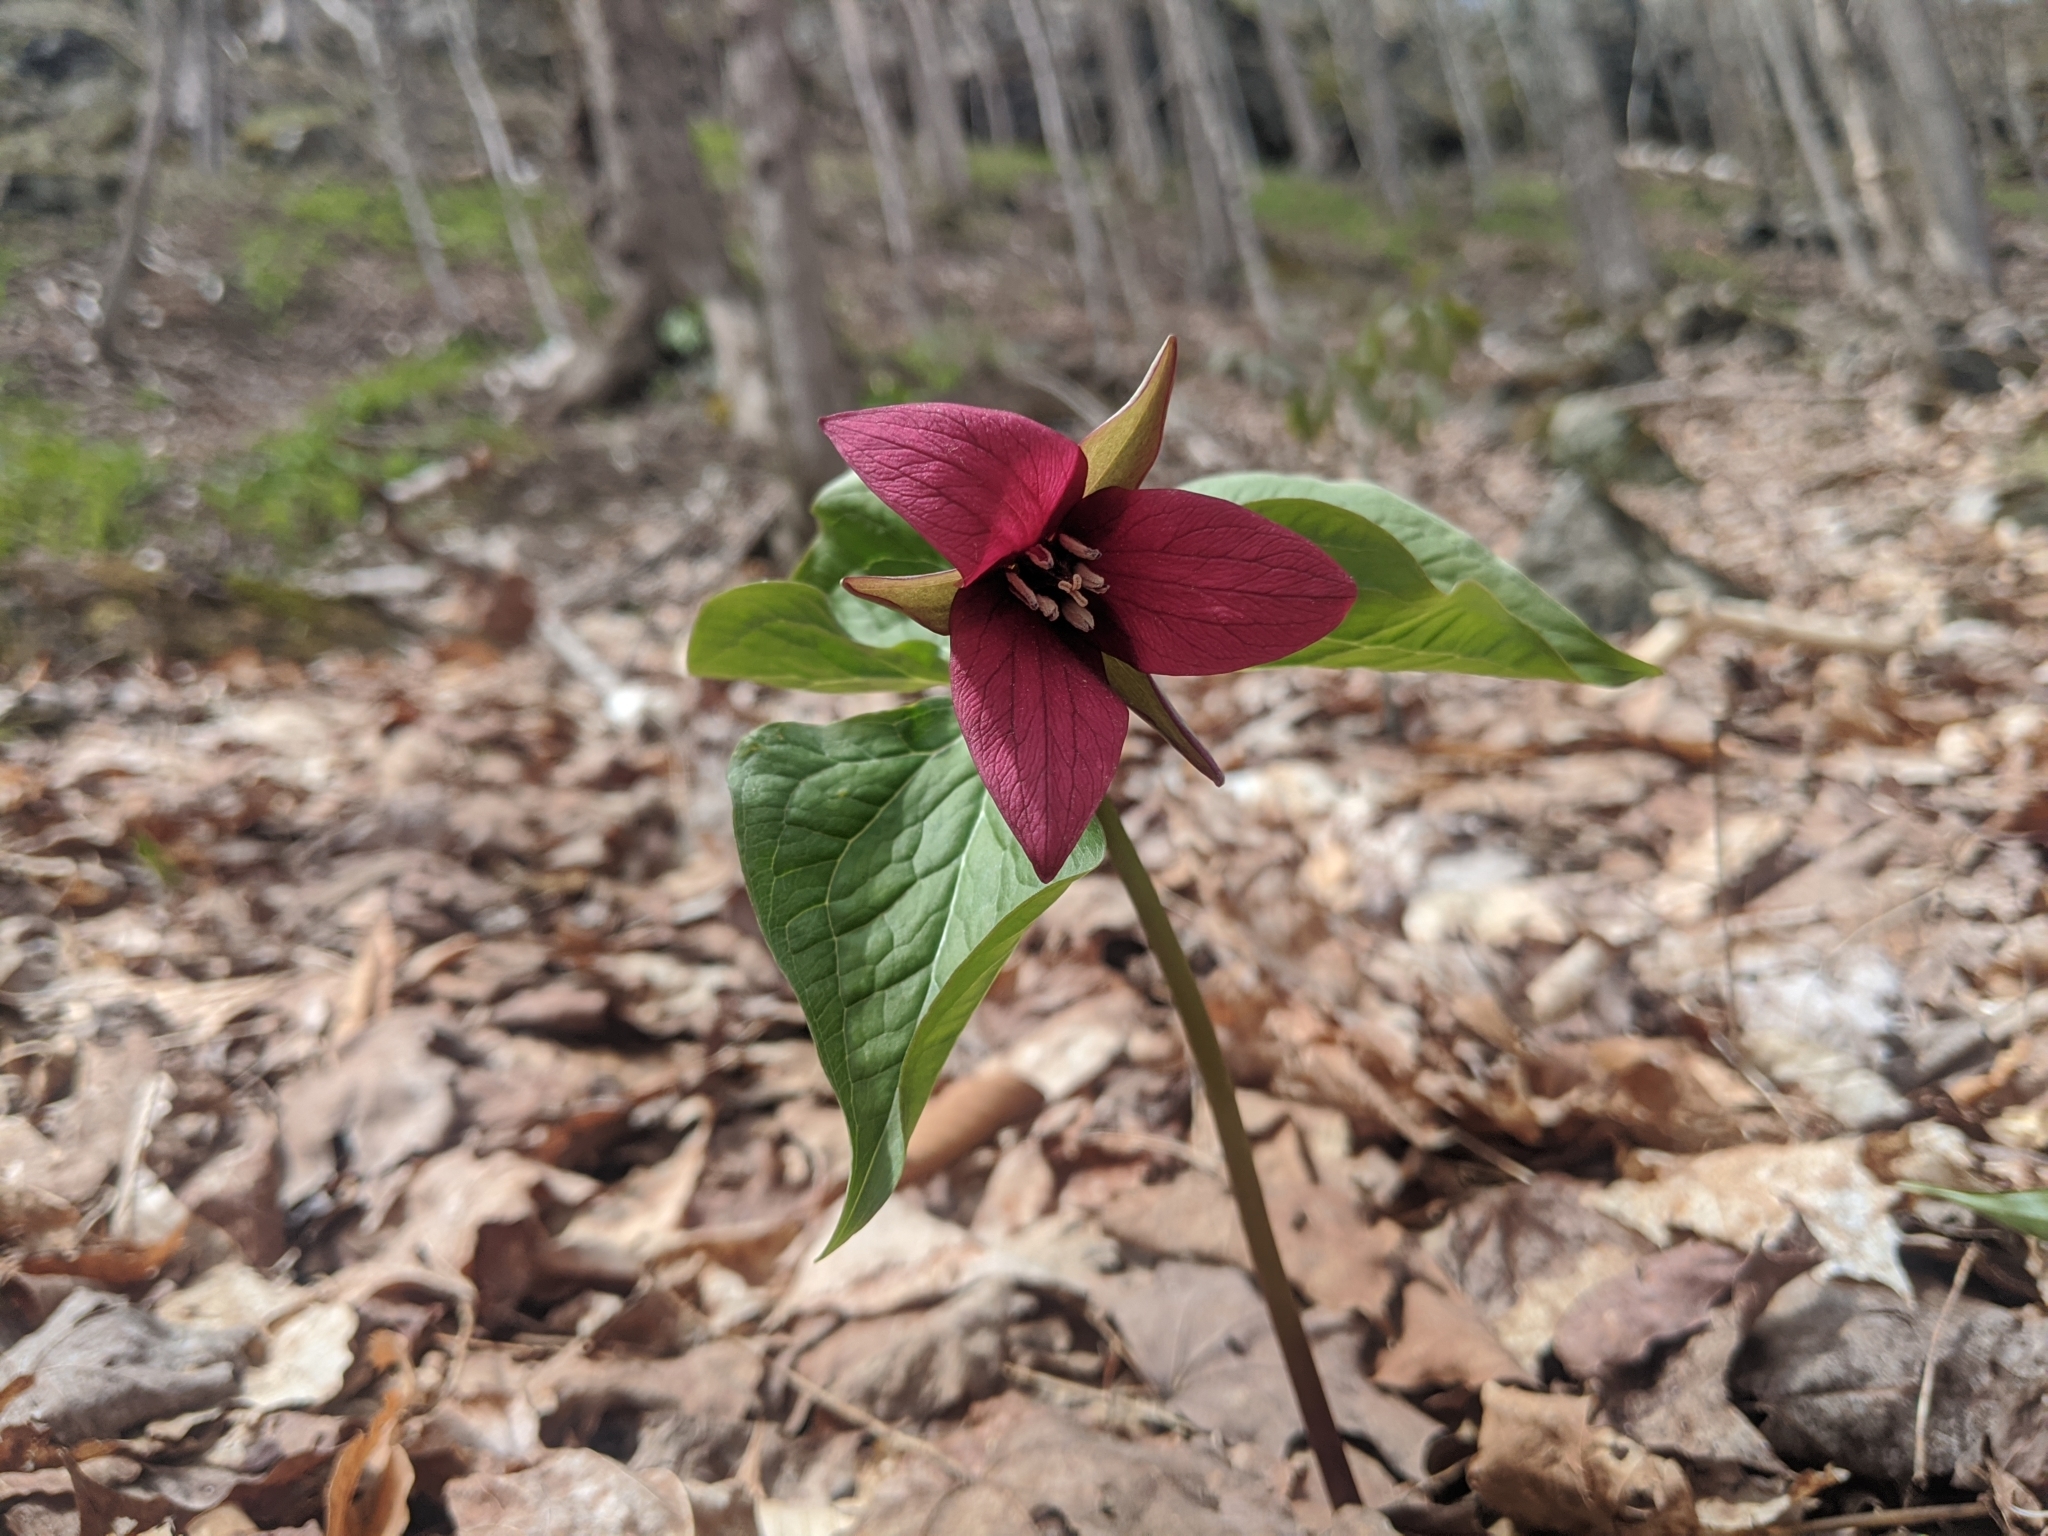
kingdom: Plantae
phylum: Tracheophyta
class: Liliopsida
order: Liliales
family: Melanthiaceae
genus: Trillium
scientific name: Trillium erectum
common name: Purple trillium
